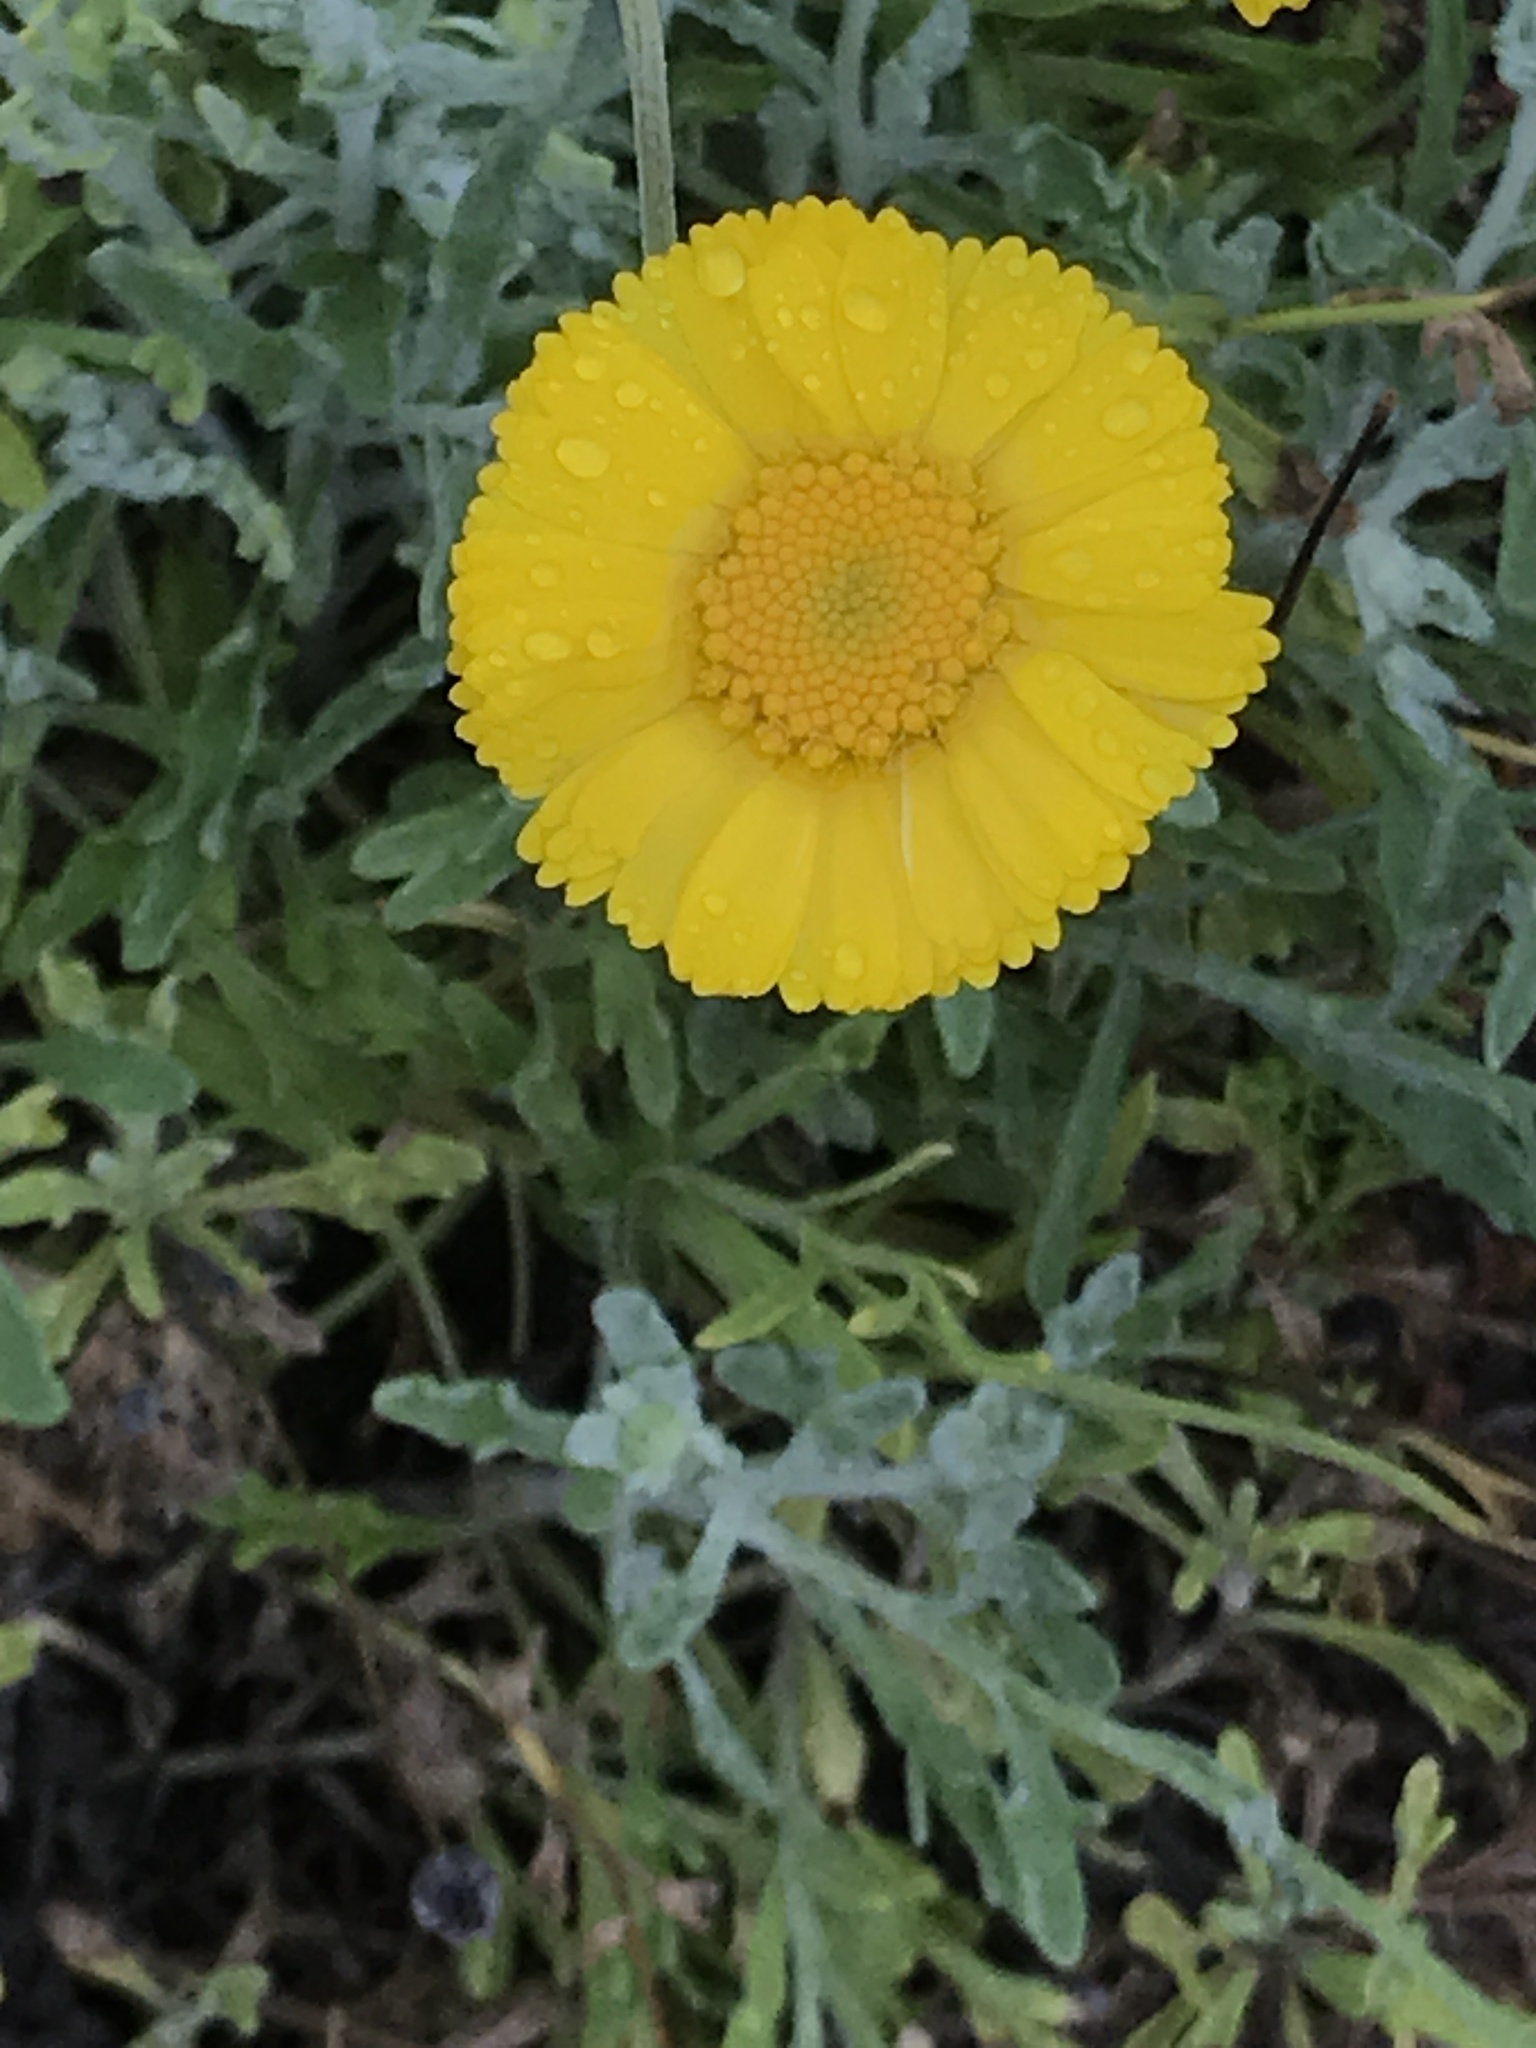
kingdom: Plantae
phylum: Tracheophyta
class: Magnoliopsida
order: Asterales
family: Asteraceae
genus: Baileya
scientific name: Baileya multiradiata
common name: Desert-marigold
